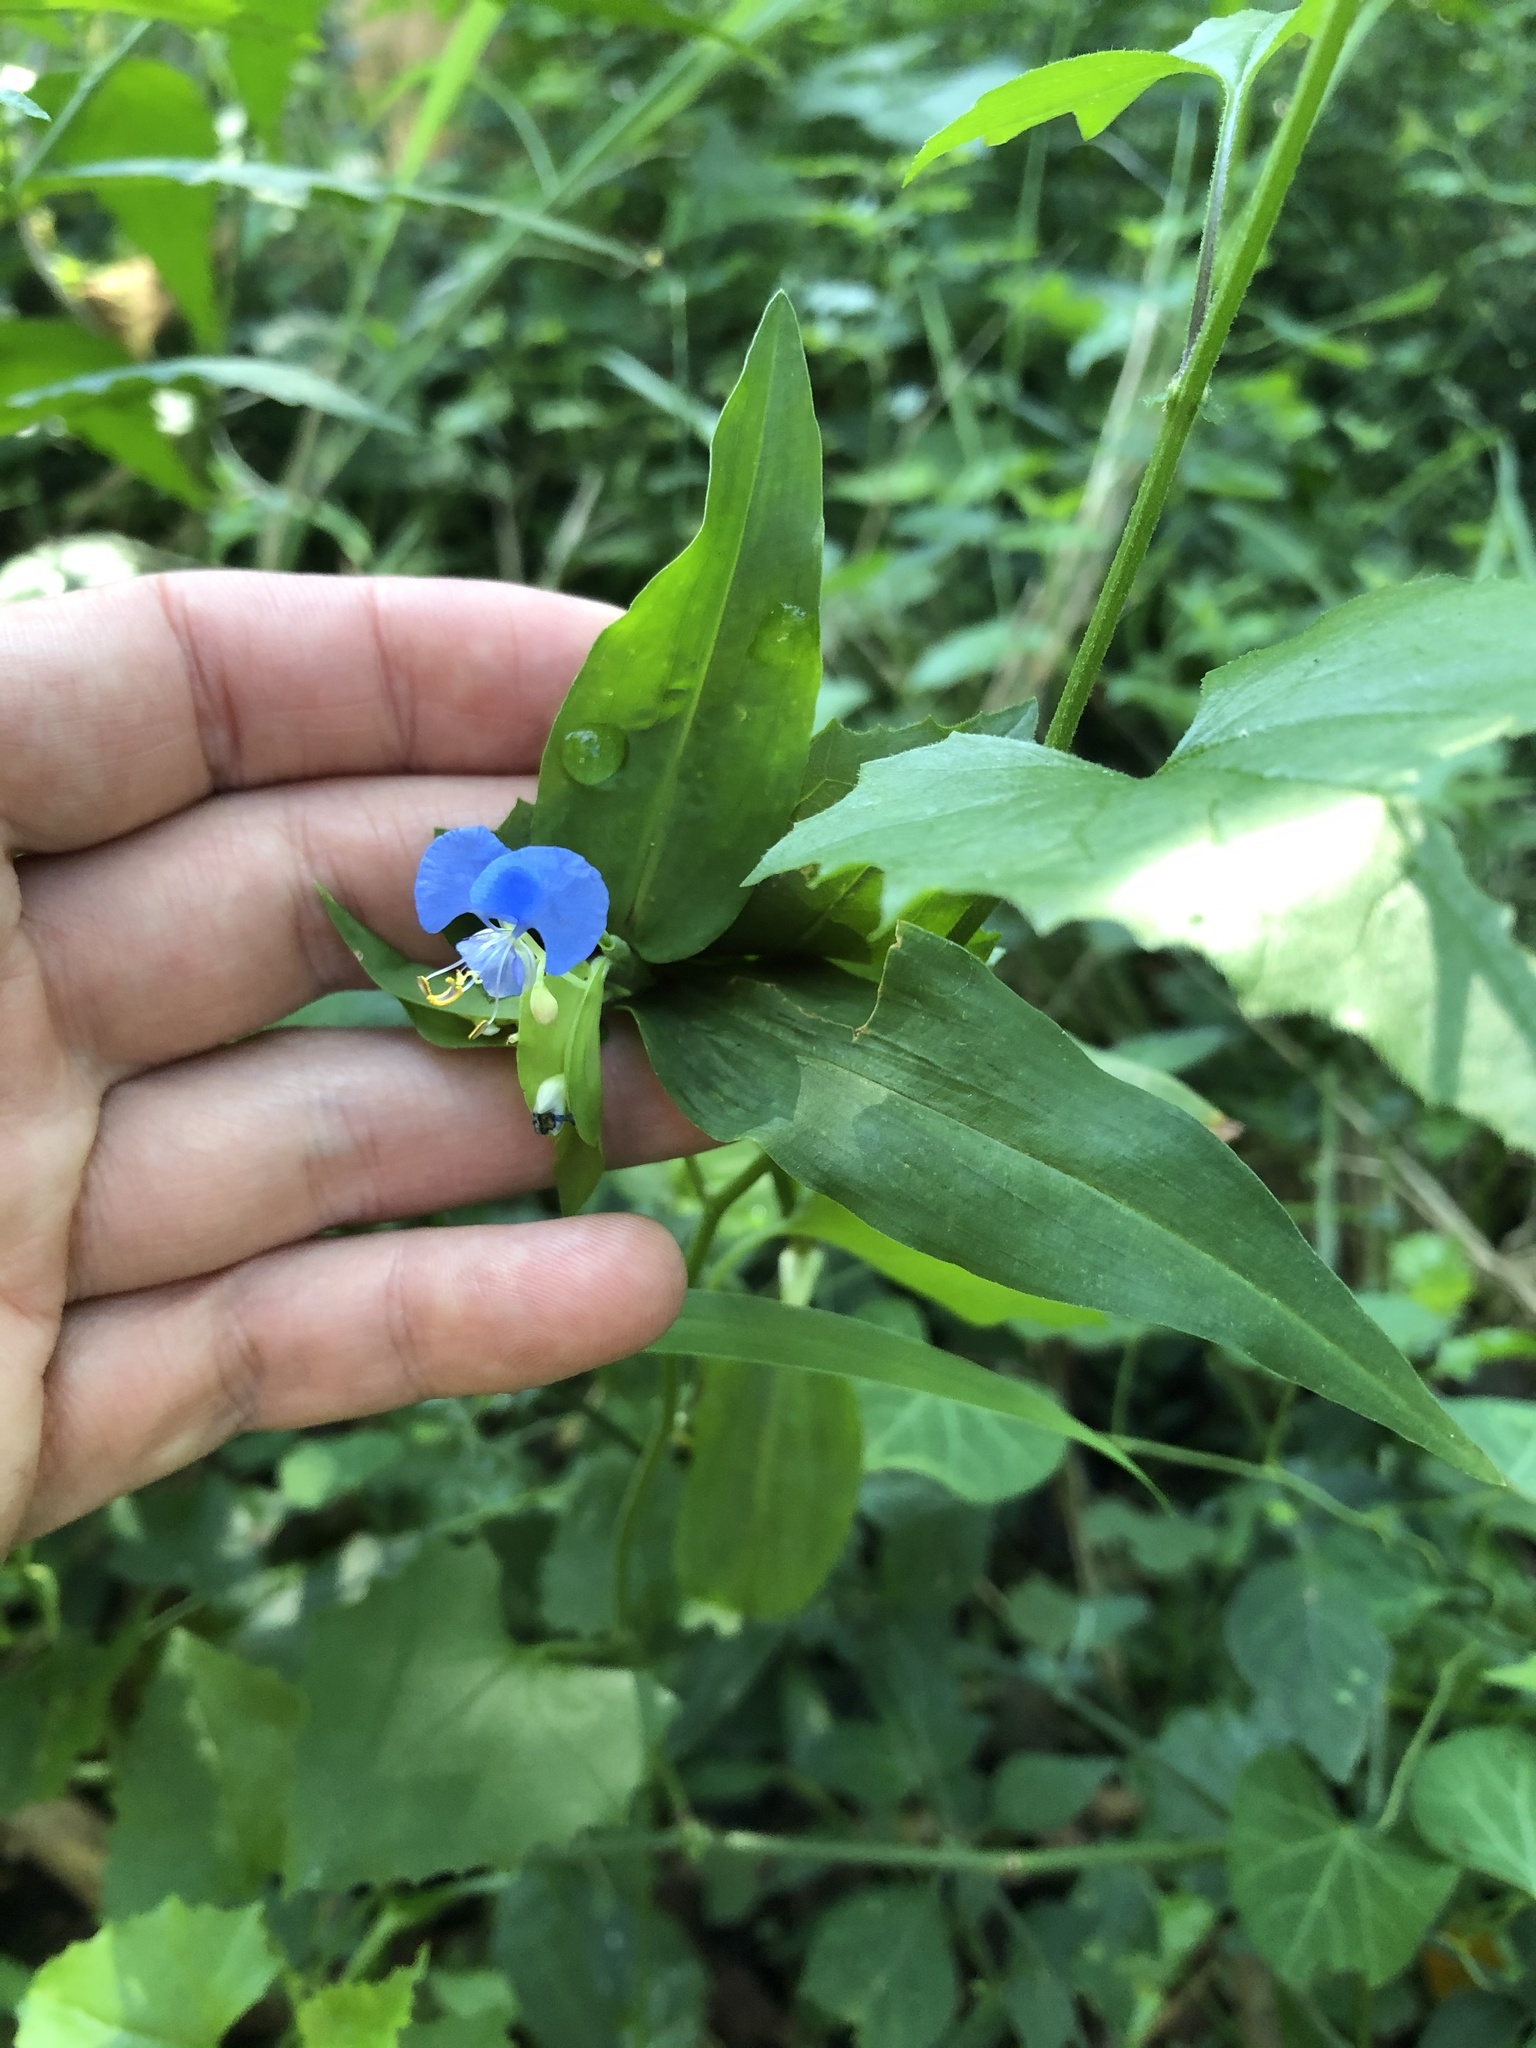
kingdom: Plantae
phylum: Tracheophyta
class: Liliopsida
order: Commelinales
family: Commelinaceae
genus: Commelina
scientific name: Commelina erecta
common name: Blousel blommetjie
